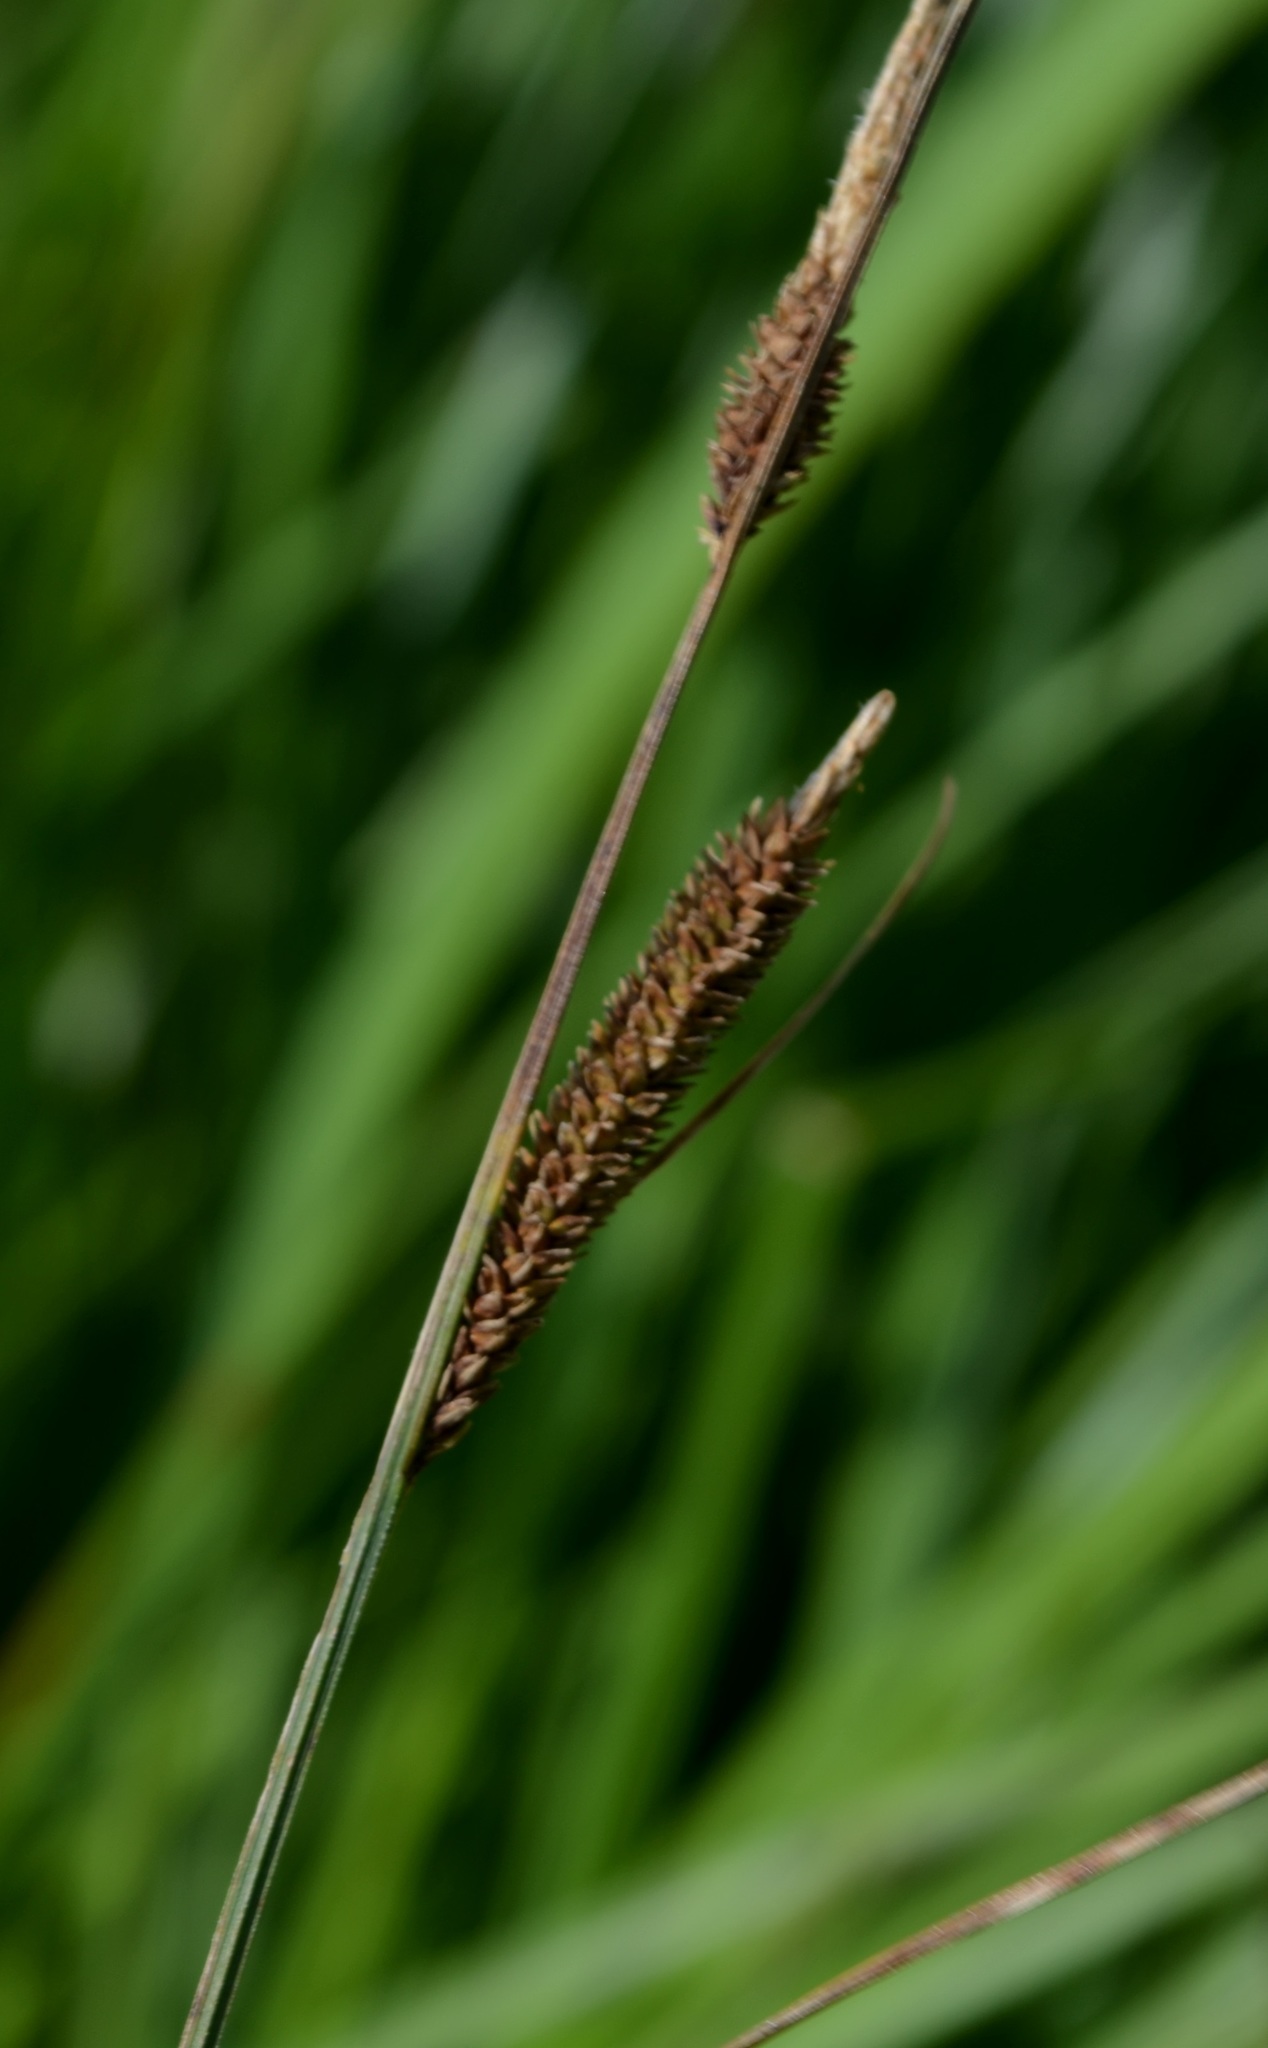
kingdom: Plantae
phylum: Tracheophyta
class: Liliopsida
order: Poales
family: Cyperaceae
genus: Carex
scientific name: Carex stricta
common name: Hummock sedge
